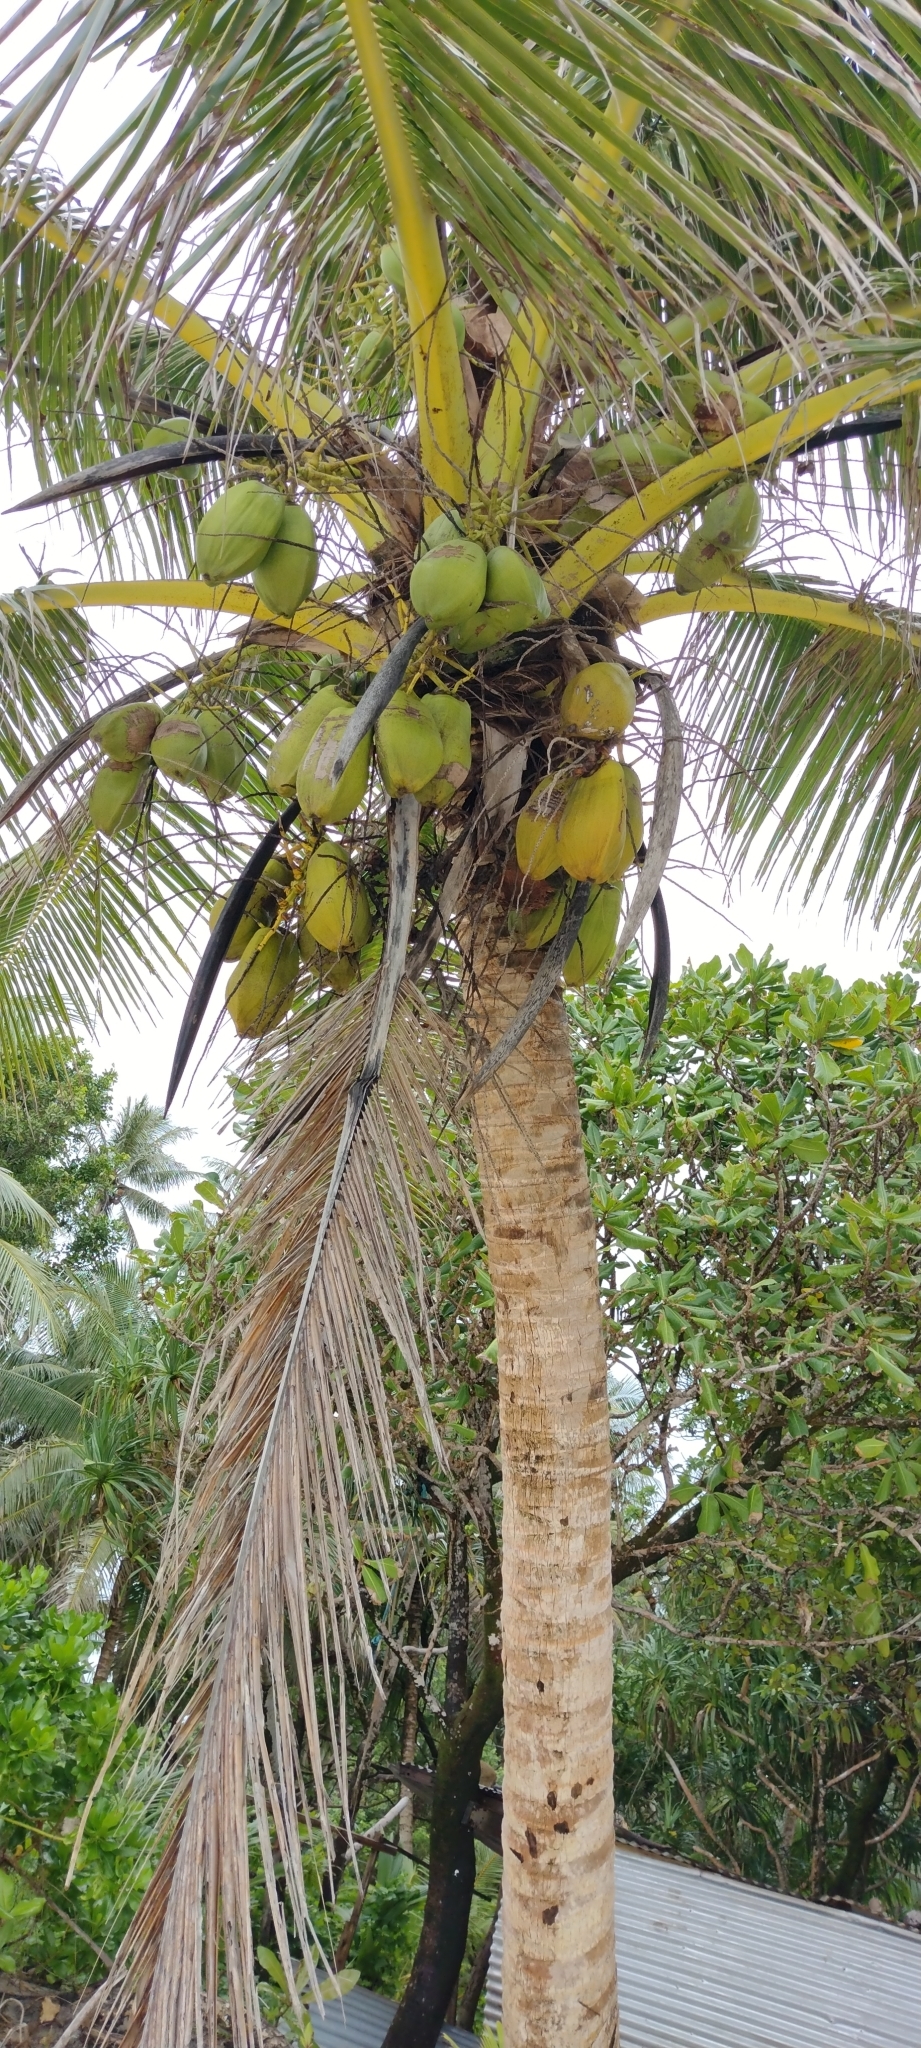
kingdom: Plantae
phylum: Tracheophyta
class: Liliopsida
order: Arecales
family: Arecaceae
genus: Cocos
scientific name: Cocos nucifera
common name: Coconut palm
